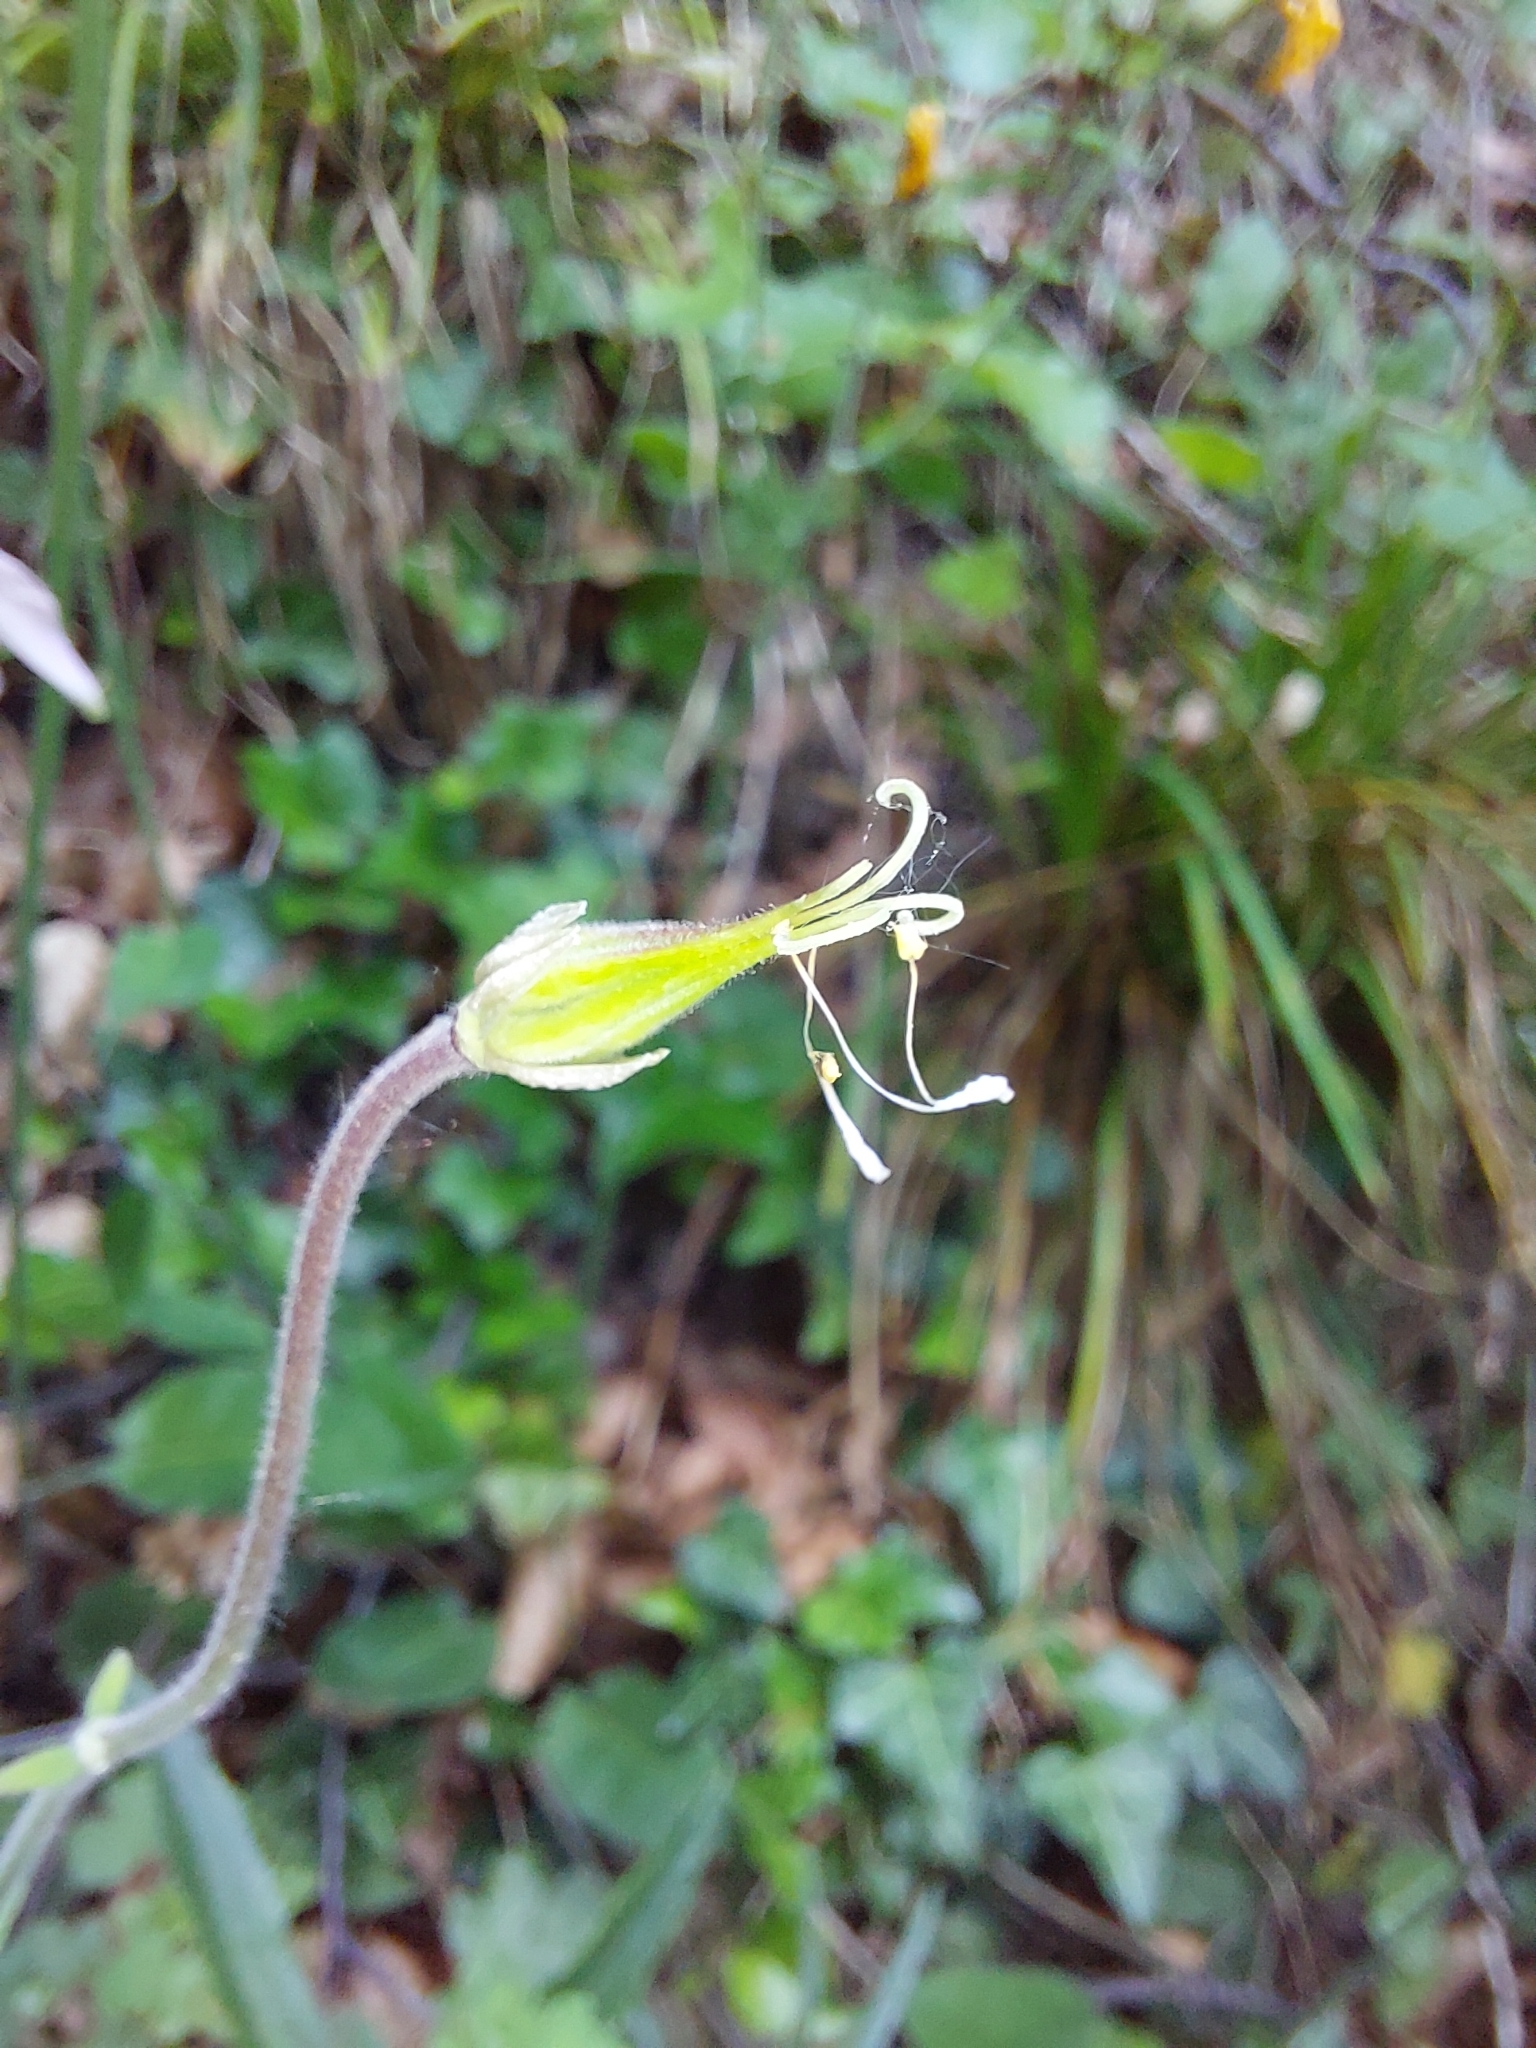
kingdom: Plantae
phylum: Tracheophyta
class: Magnoliopsida
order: Ranunculales
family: Ranunculaceae
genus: Aquilegia
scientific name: Aquilegia vulgaris
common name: Columbine
